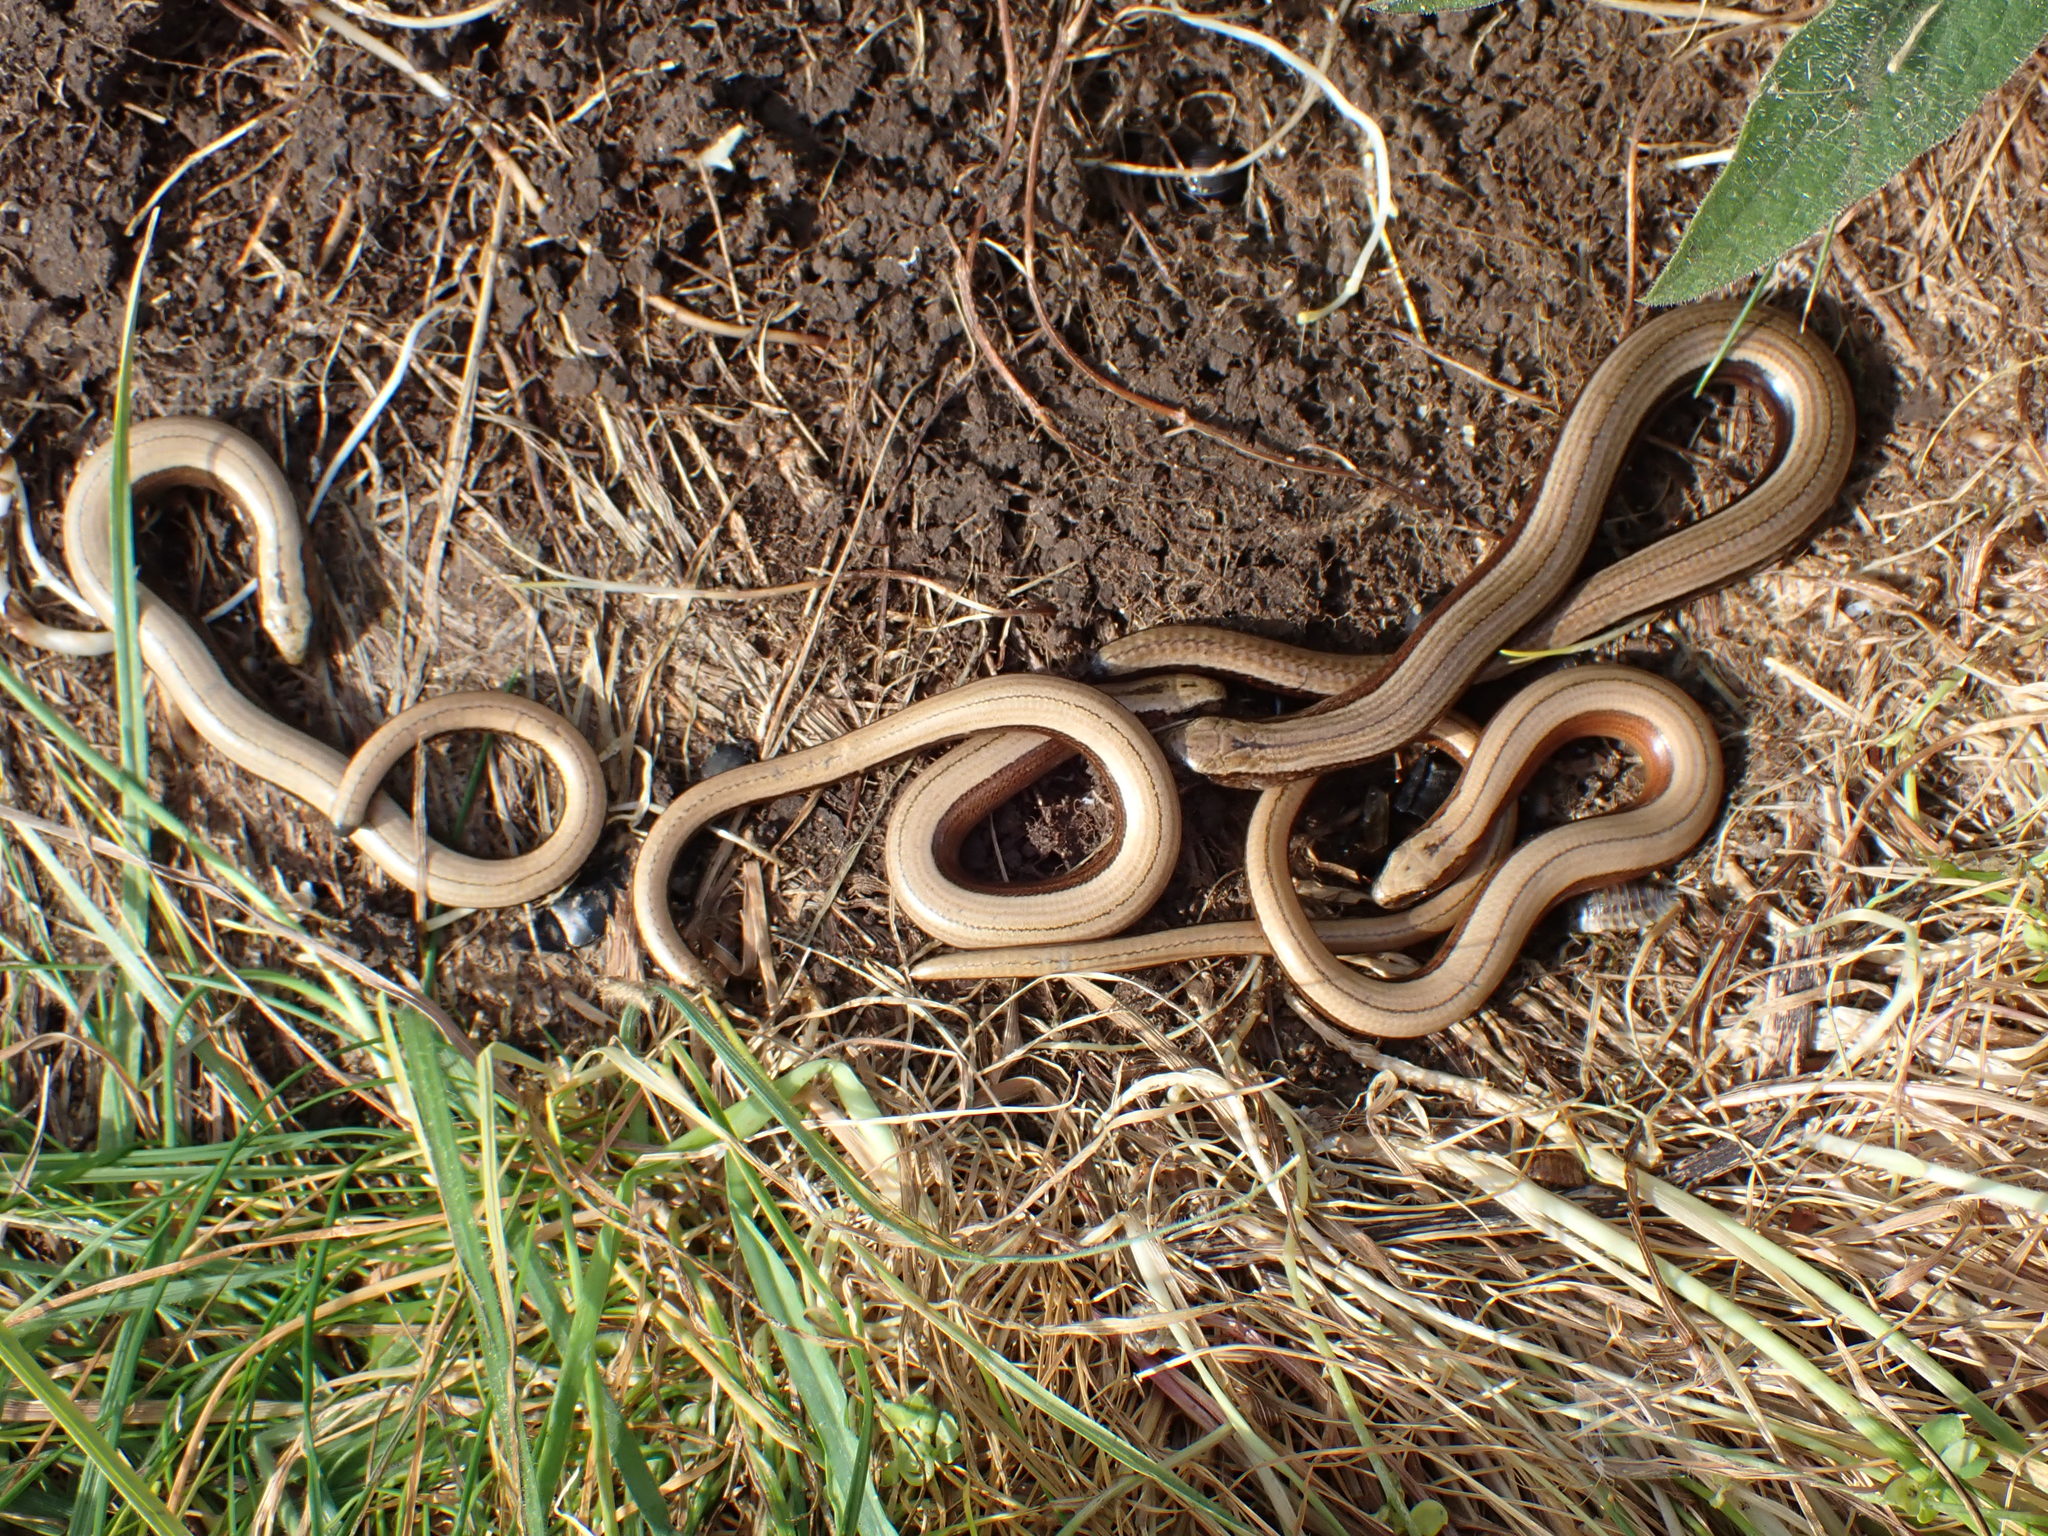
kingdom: Animalia
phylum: Chordata
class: Squamata
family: Anguidae
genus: Anguis
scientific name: Anguis fragilis
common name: Slow worm
